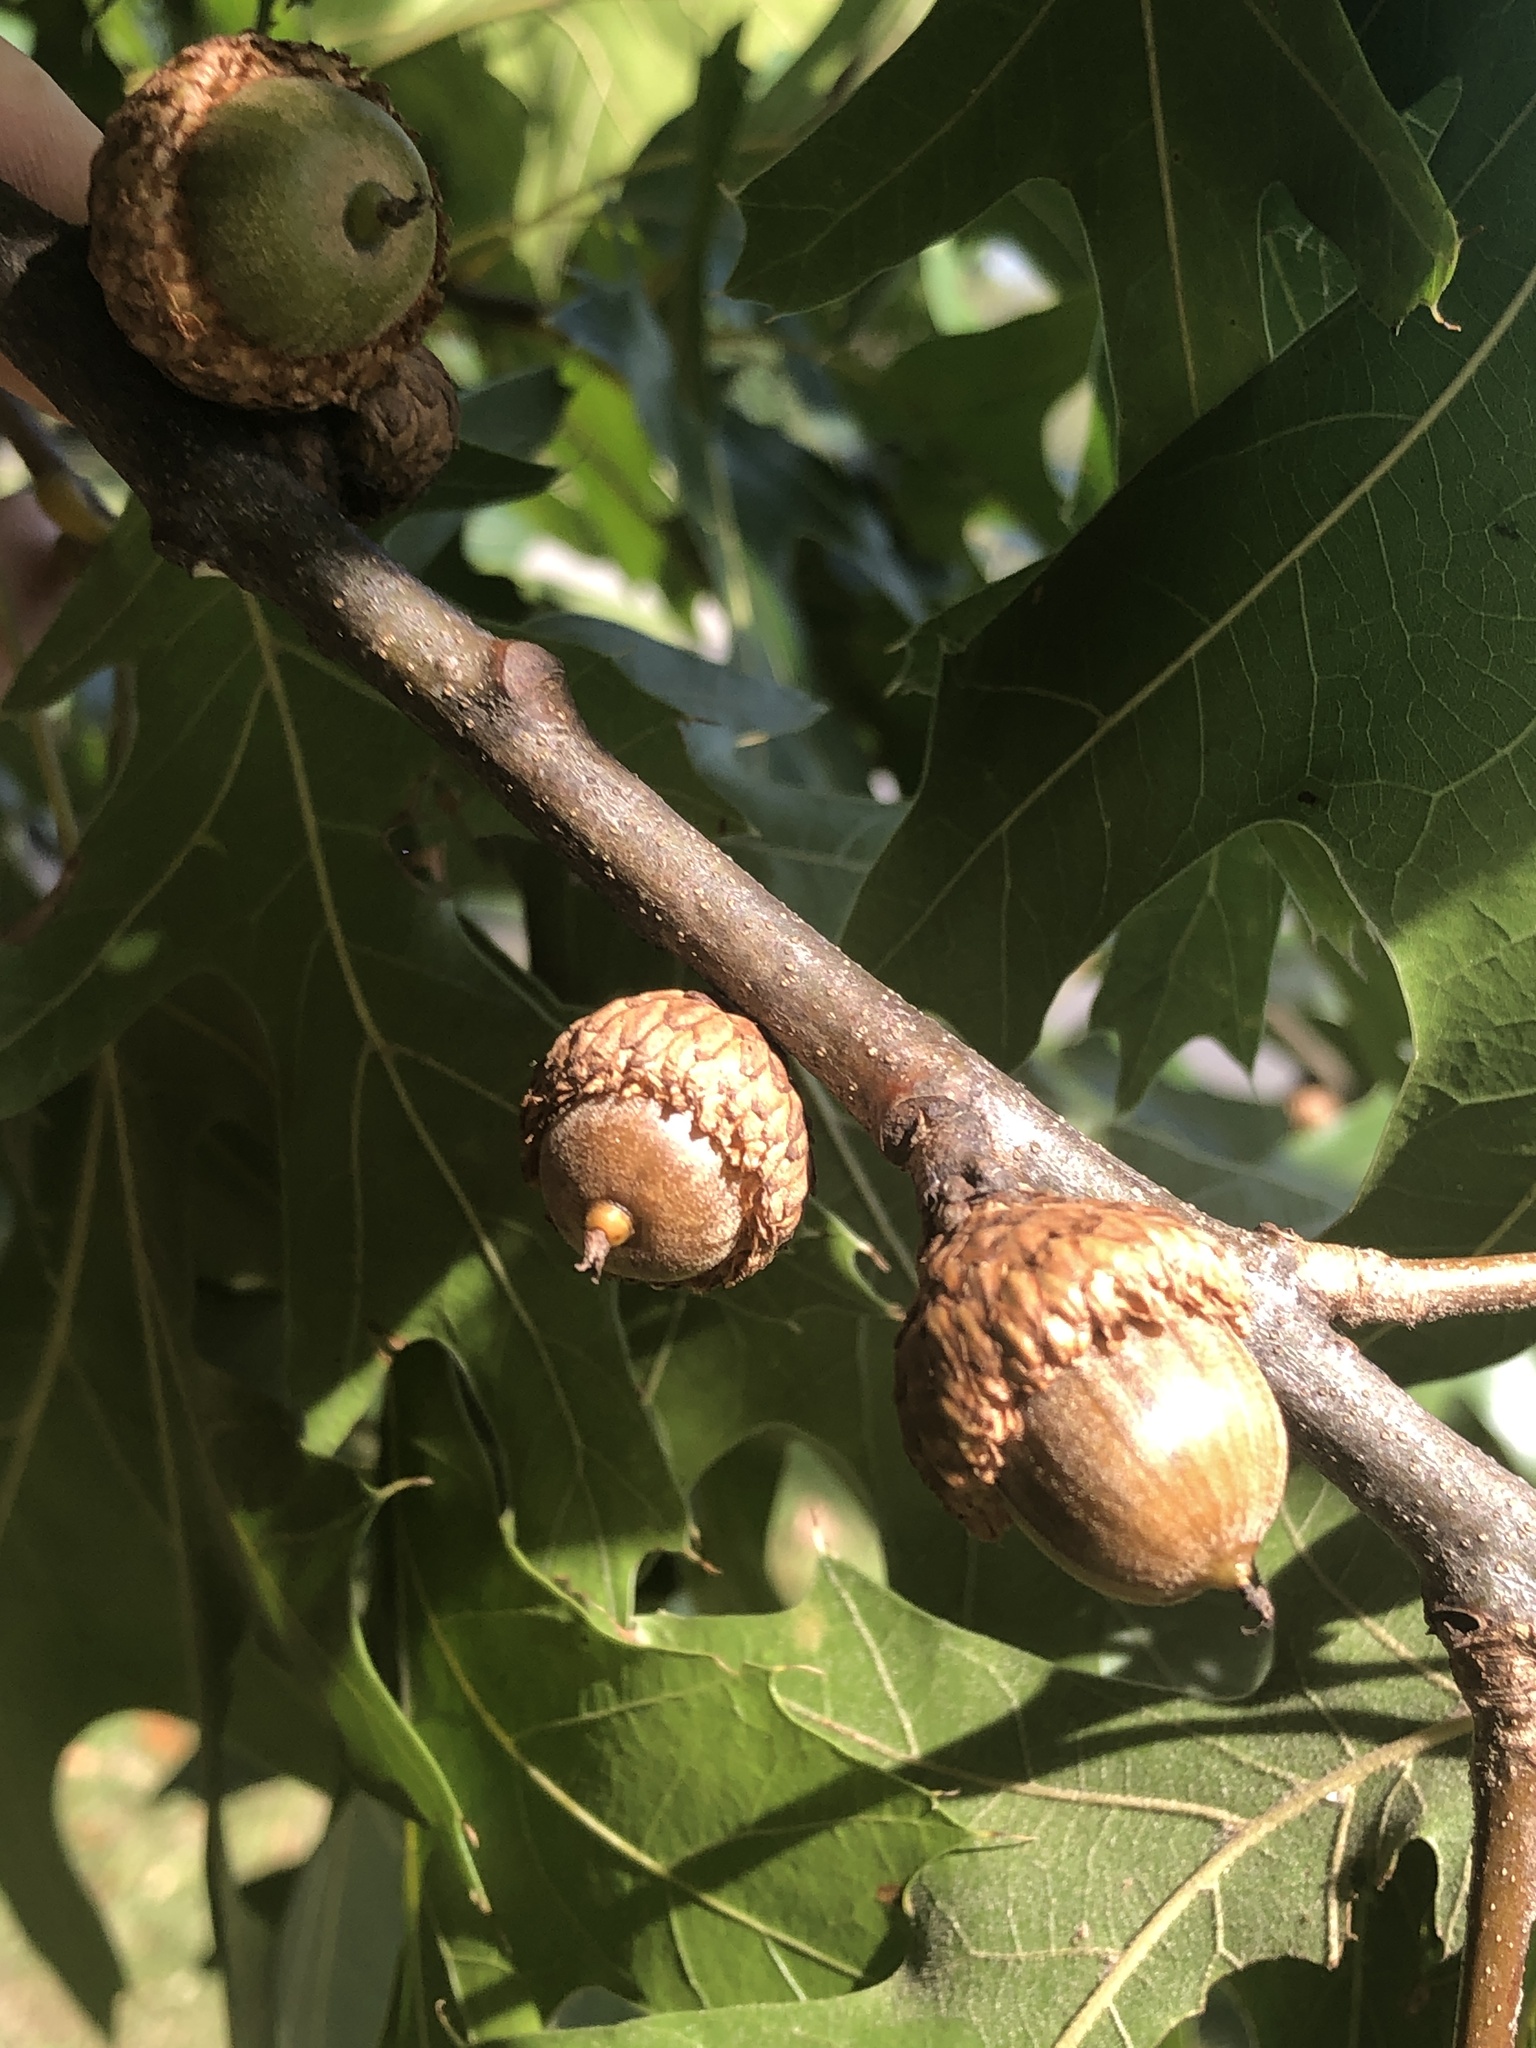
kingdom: Plantae
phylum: Tracheophyta
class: Magnoliopsida
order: Fagales
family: Fagaceae
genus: Quercus
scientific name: Quercus velutina
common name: Black oak
